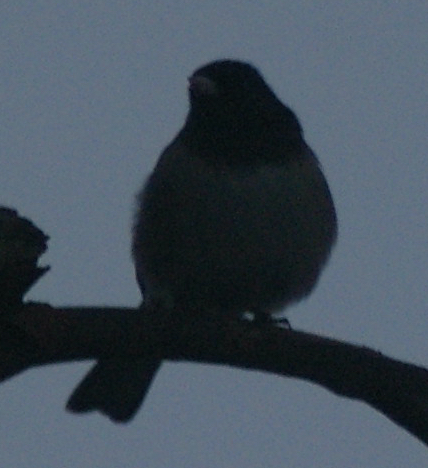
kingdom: Animalia
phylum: Chordata
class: Aves
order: Passeriformes
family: Passerellidae
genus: Junco
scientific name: Junco hyemalis
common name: Dark-eyed junco
